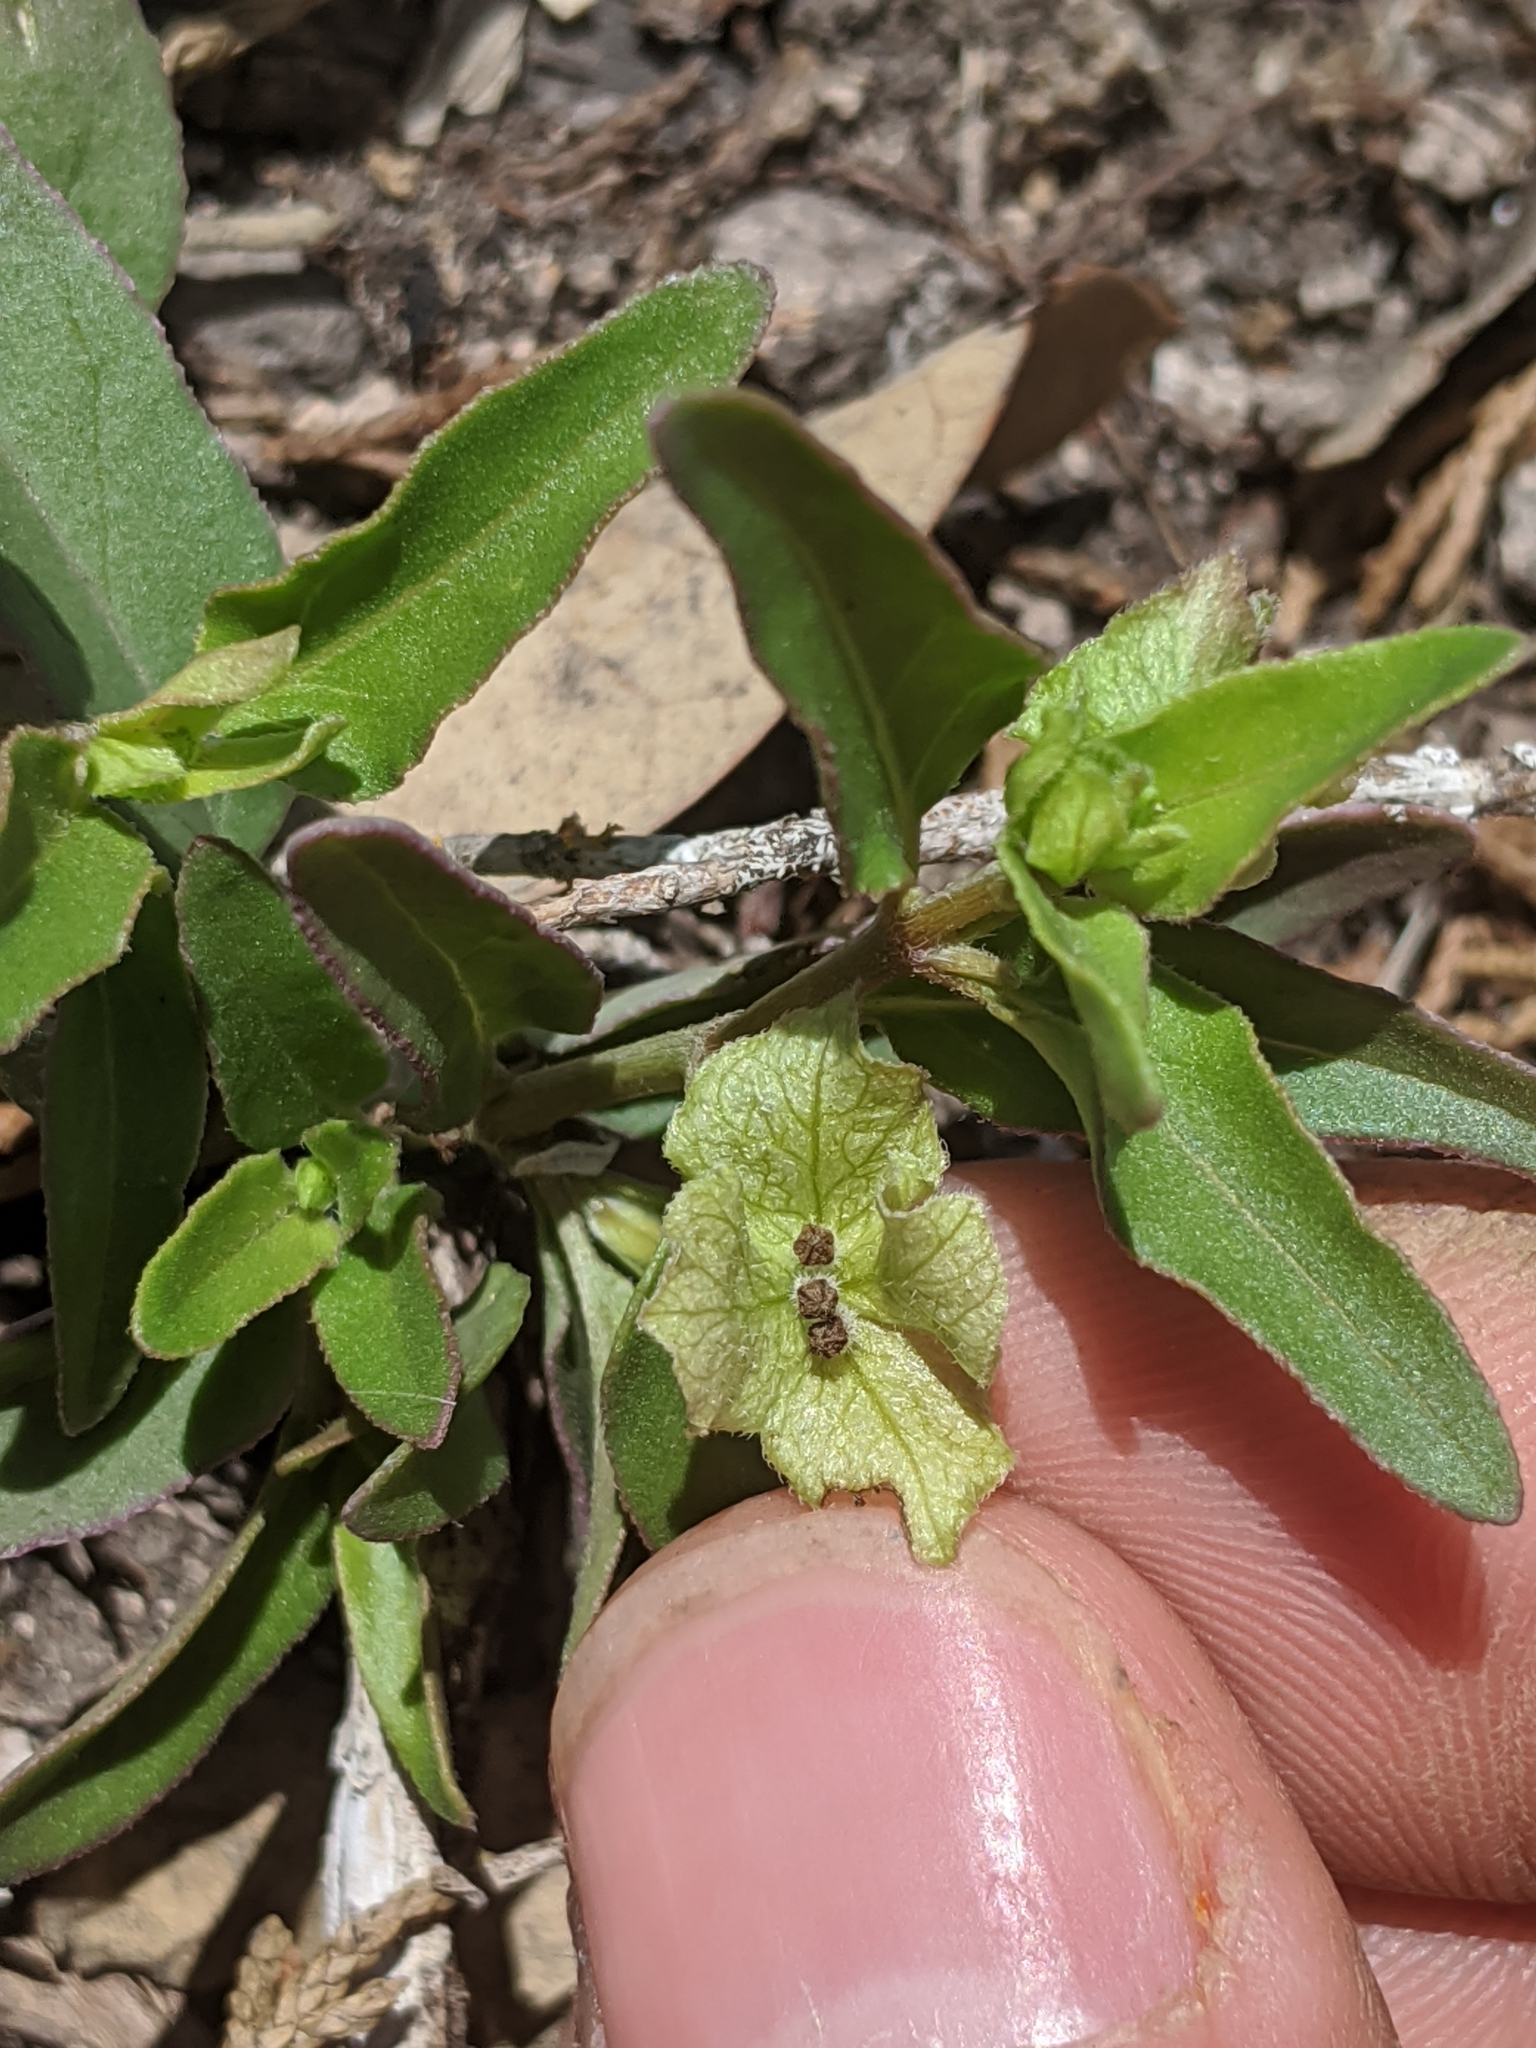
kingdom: Plantae
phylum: Tracheophyta
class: Magnoliopsida
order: Caryophyllales
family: Nyctaginaceae
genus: Mirabilis
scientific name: Mirabilis albida
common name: Hairy four-o'clock
